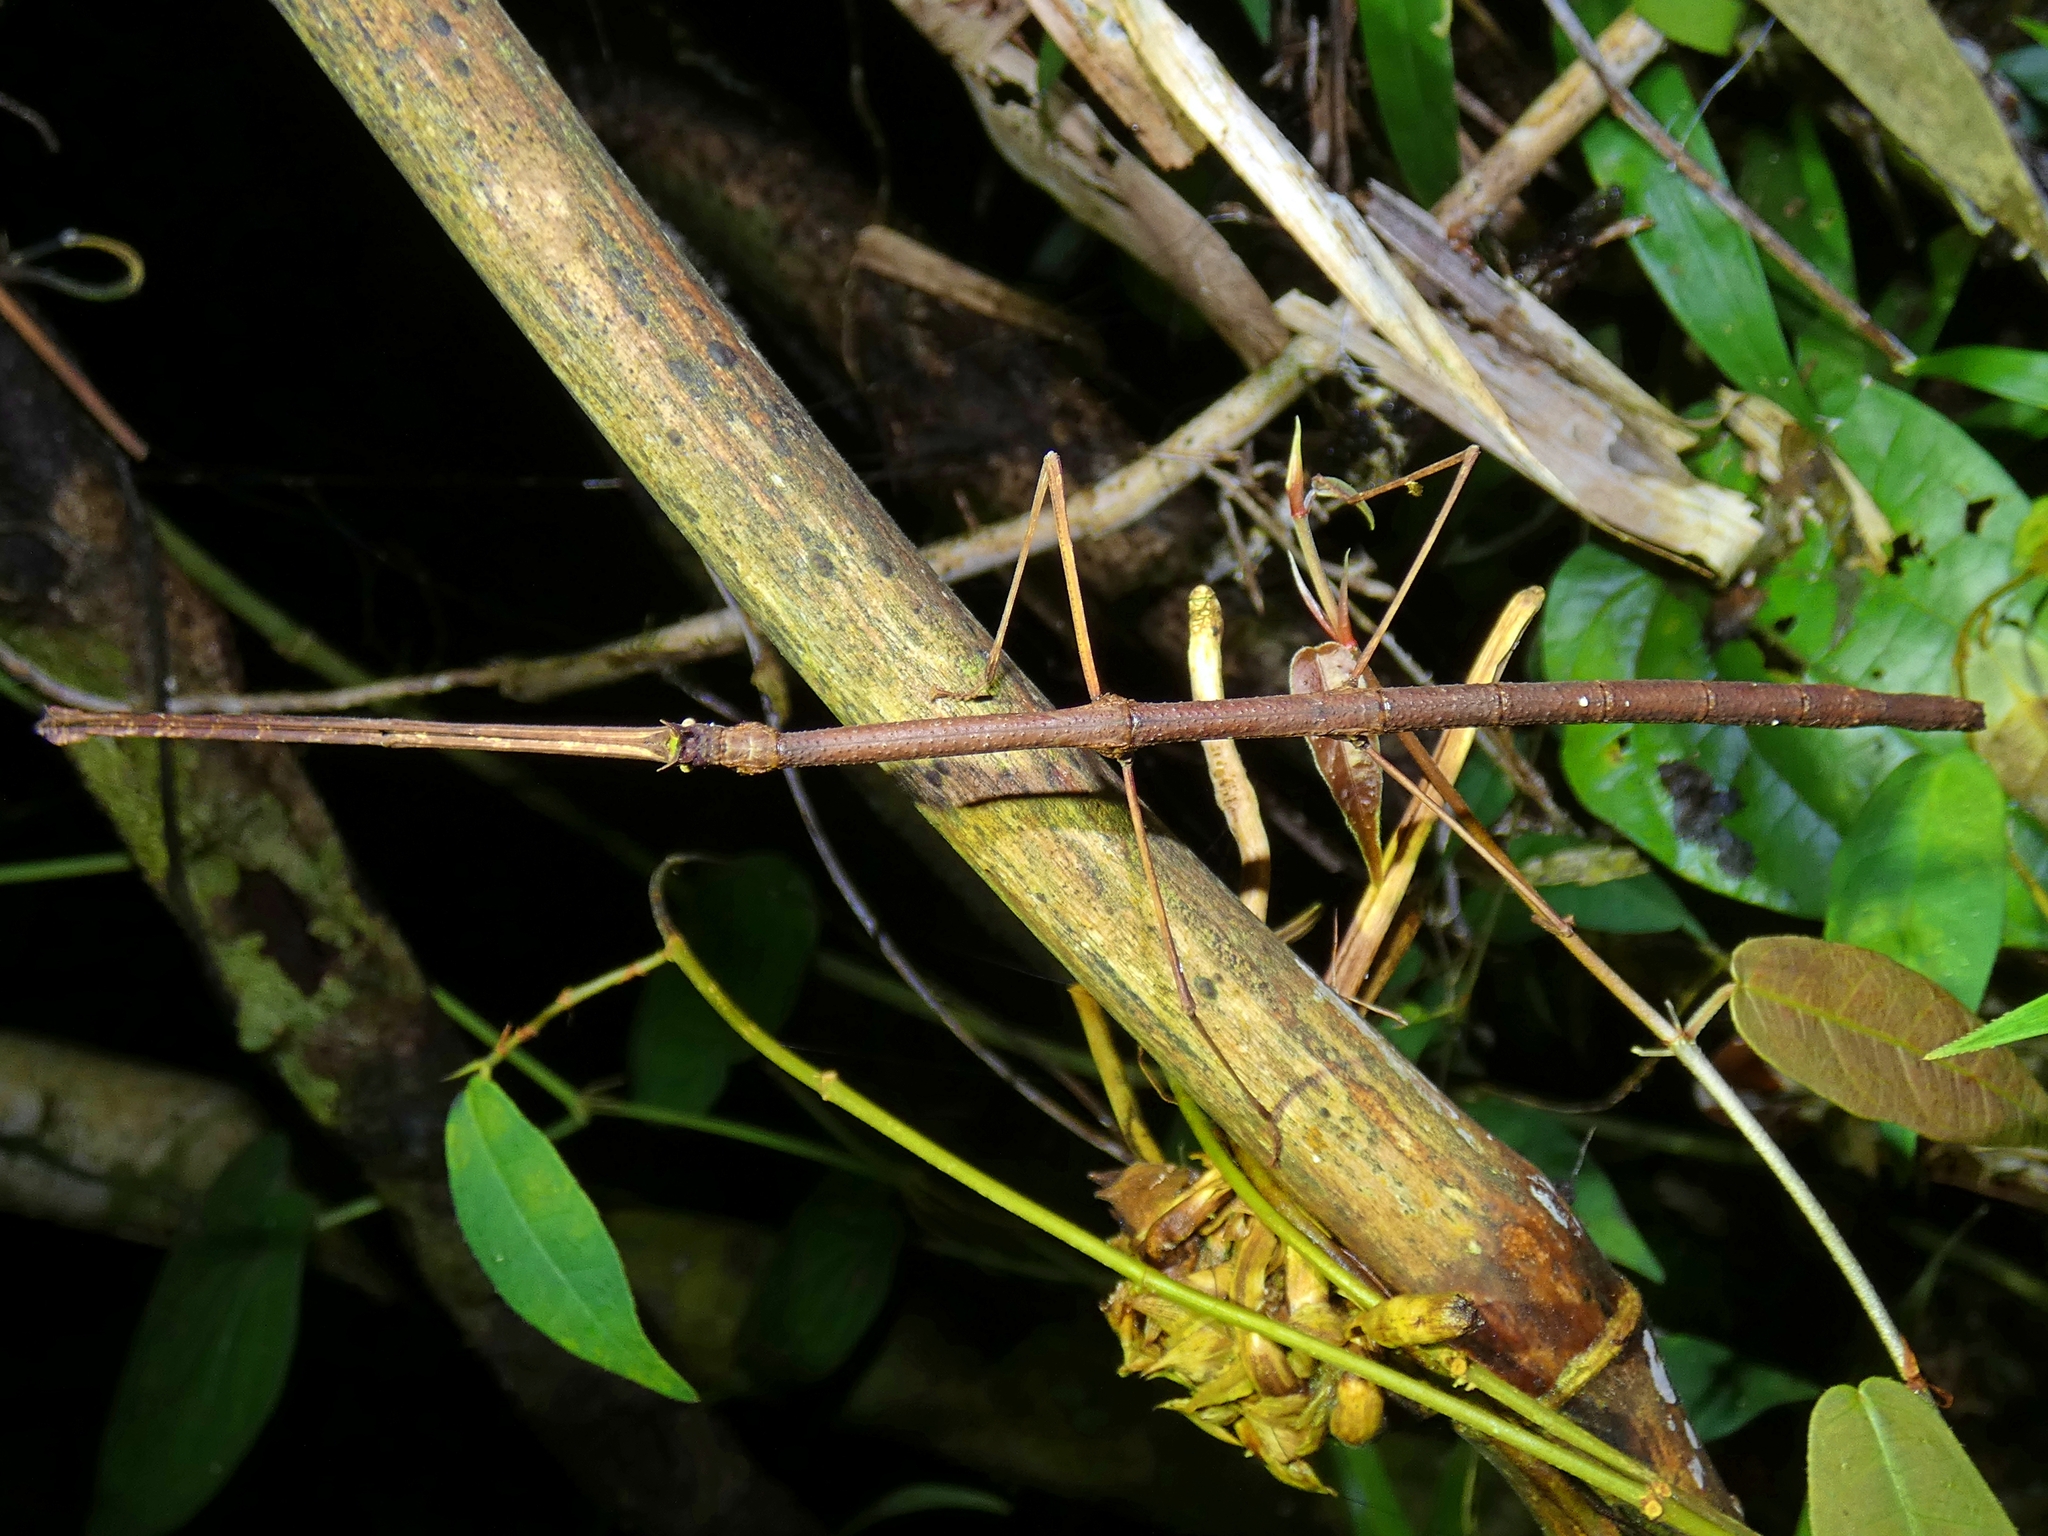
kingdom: Animalia
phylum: Arthropoda
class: Insecta
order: Phasmida
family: Phasmatidae
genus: Onchestus
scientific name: Onchestus rentzi
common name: Rentz's stick-insect
